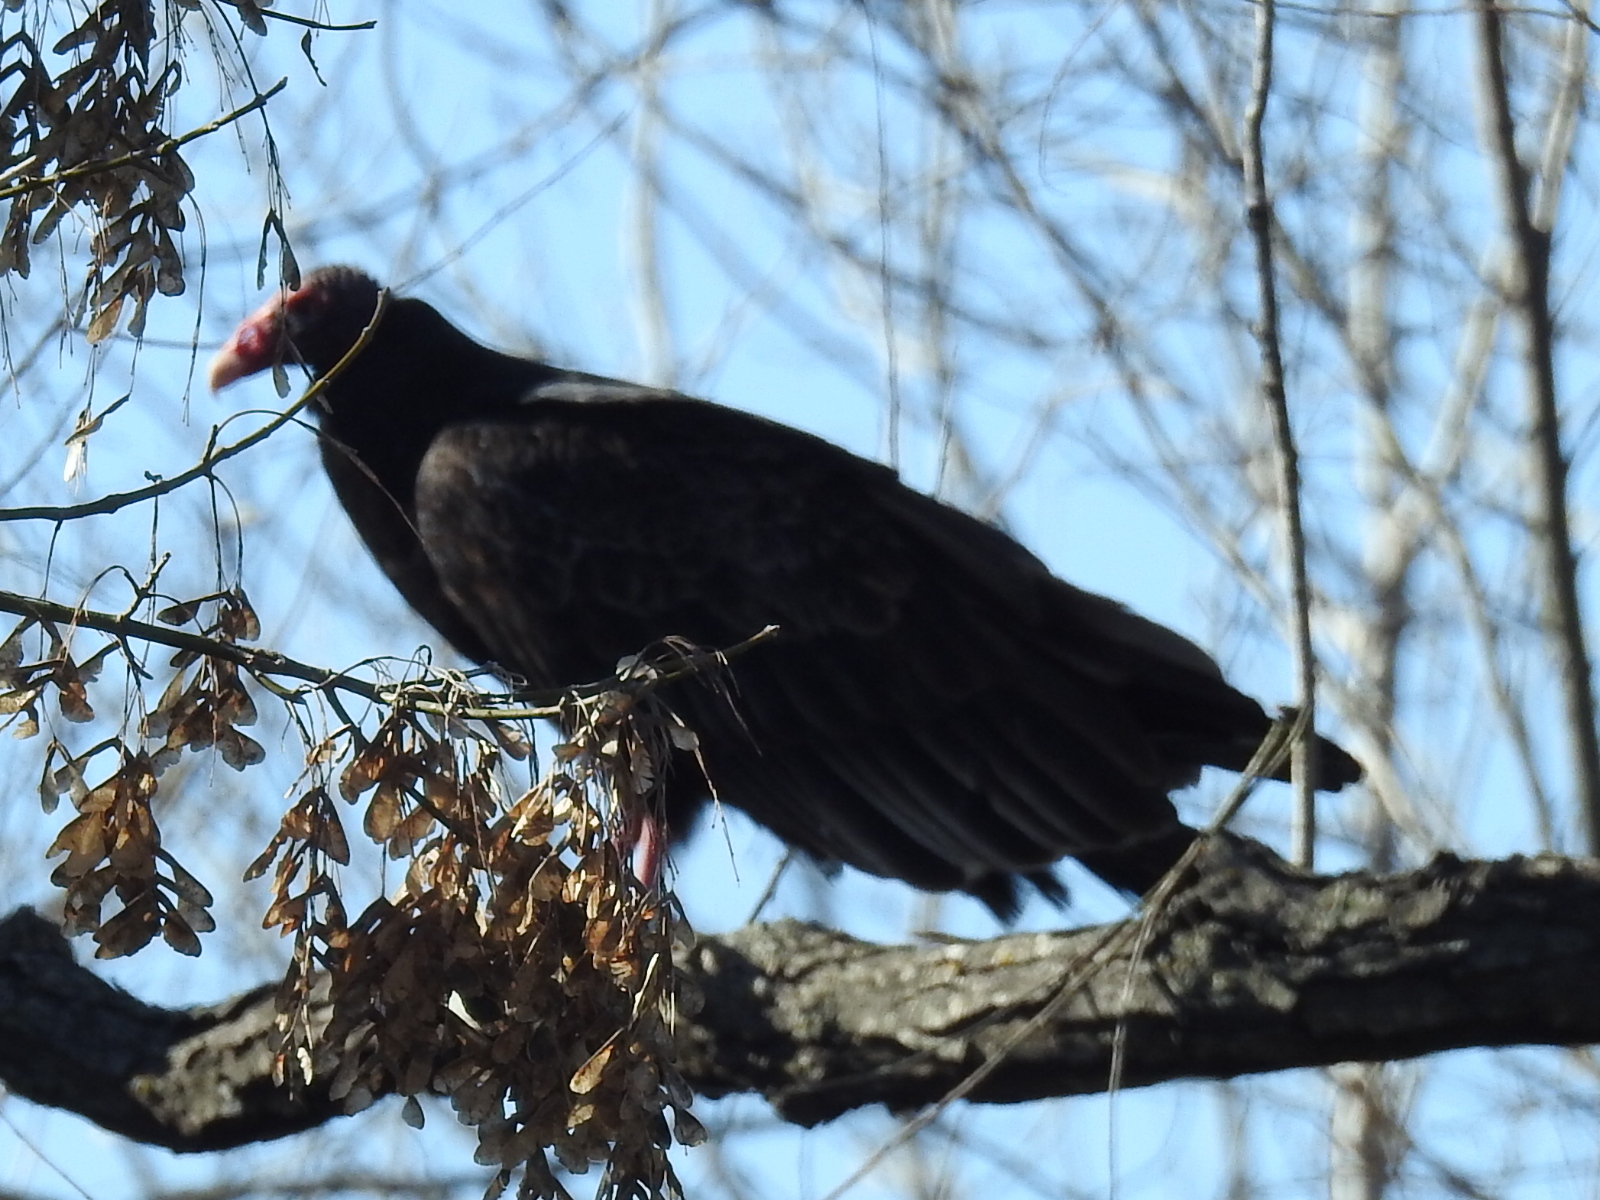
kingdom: Animalia
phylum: Chordata
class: Aves
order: Accipitriformes
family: Cathartidae
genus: Cathartes
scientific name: Cathartes aura
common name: Turkey vulture
